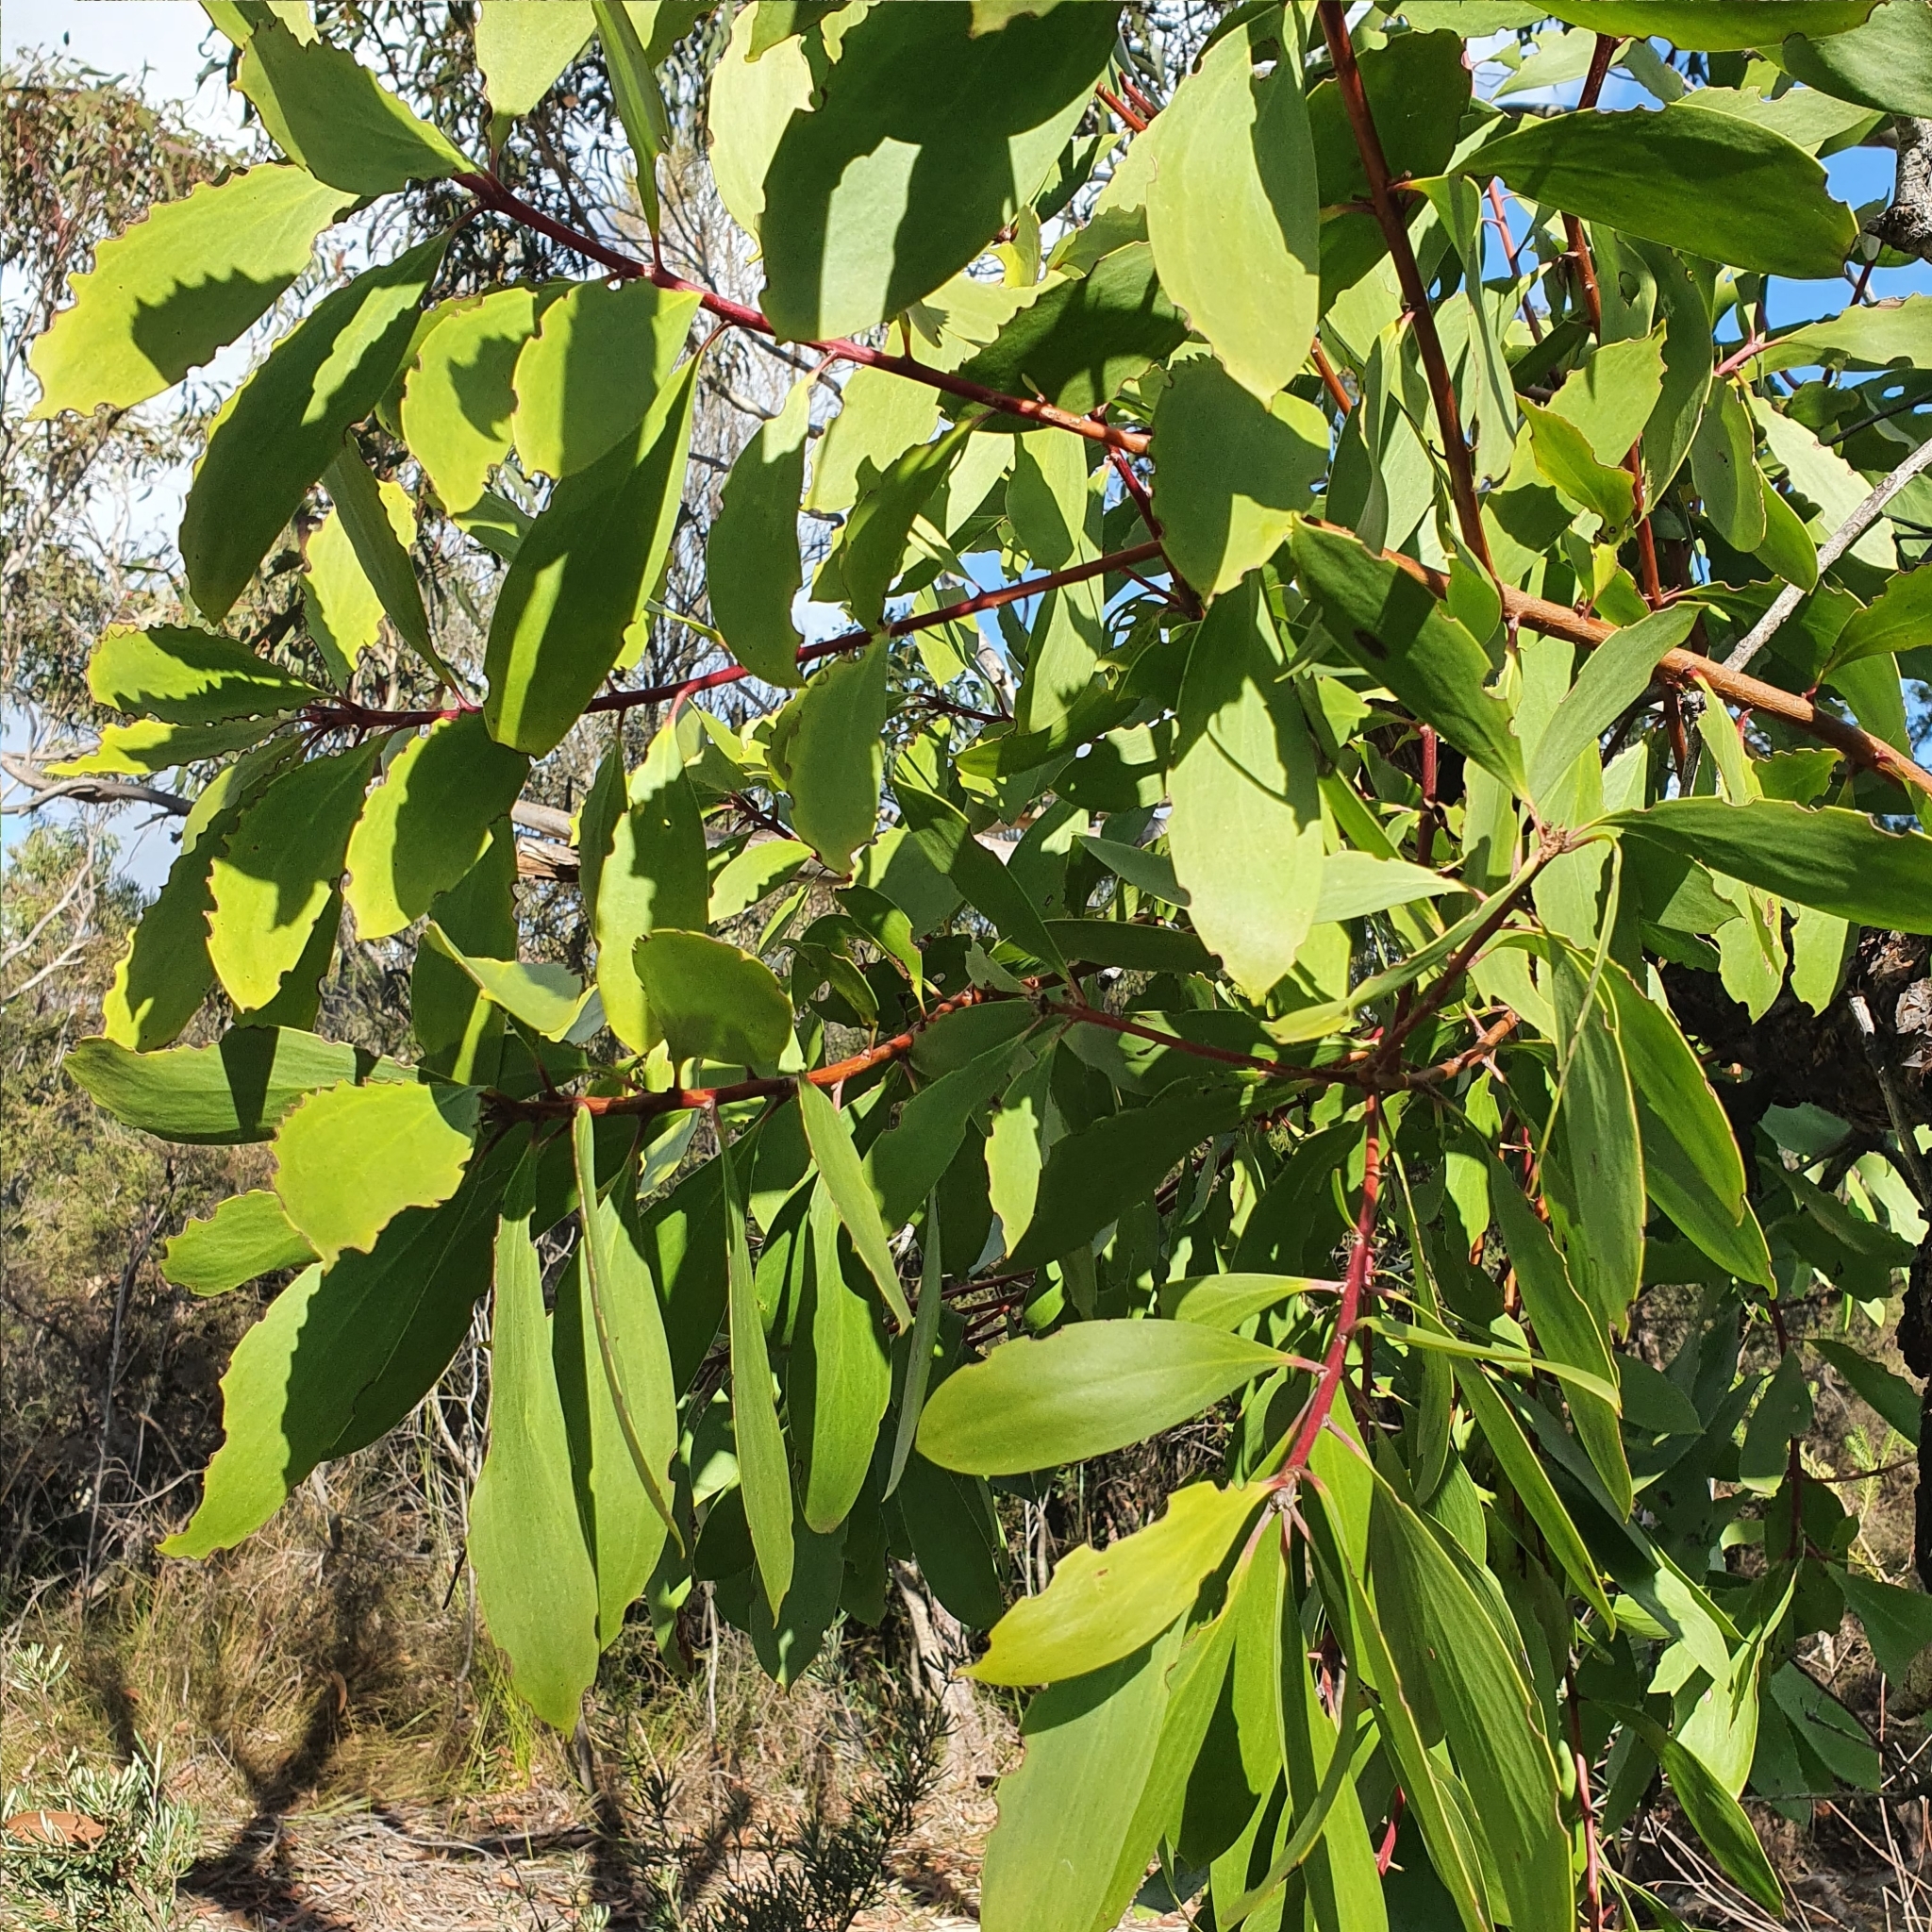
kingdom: Plantae
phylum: Tracheophyta
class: Magnoliopsida
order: Proteales
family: Proteaceae
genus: Persoonia
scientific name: Persoonia levis
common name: Smooth geebung
